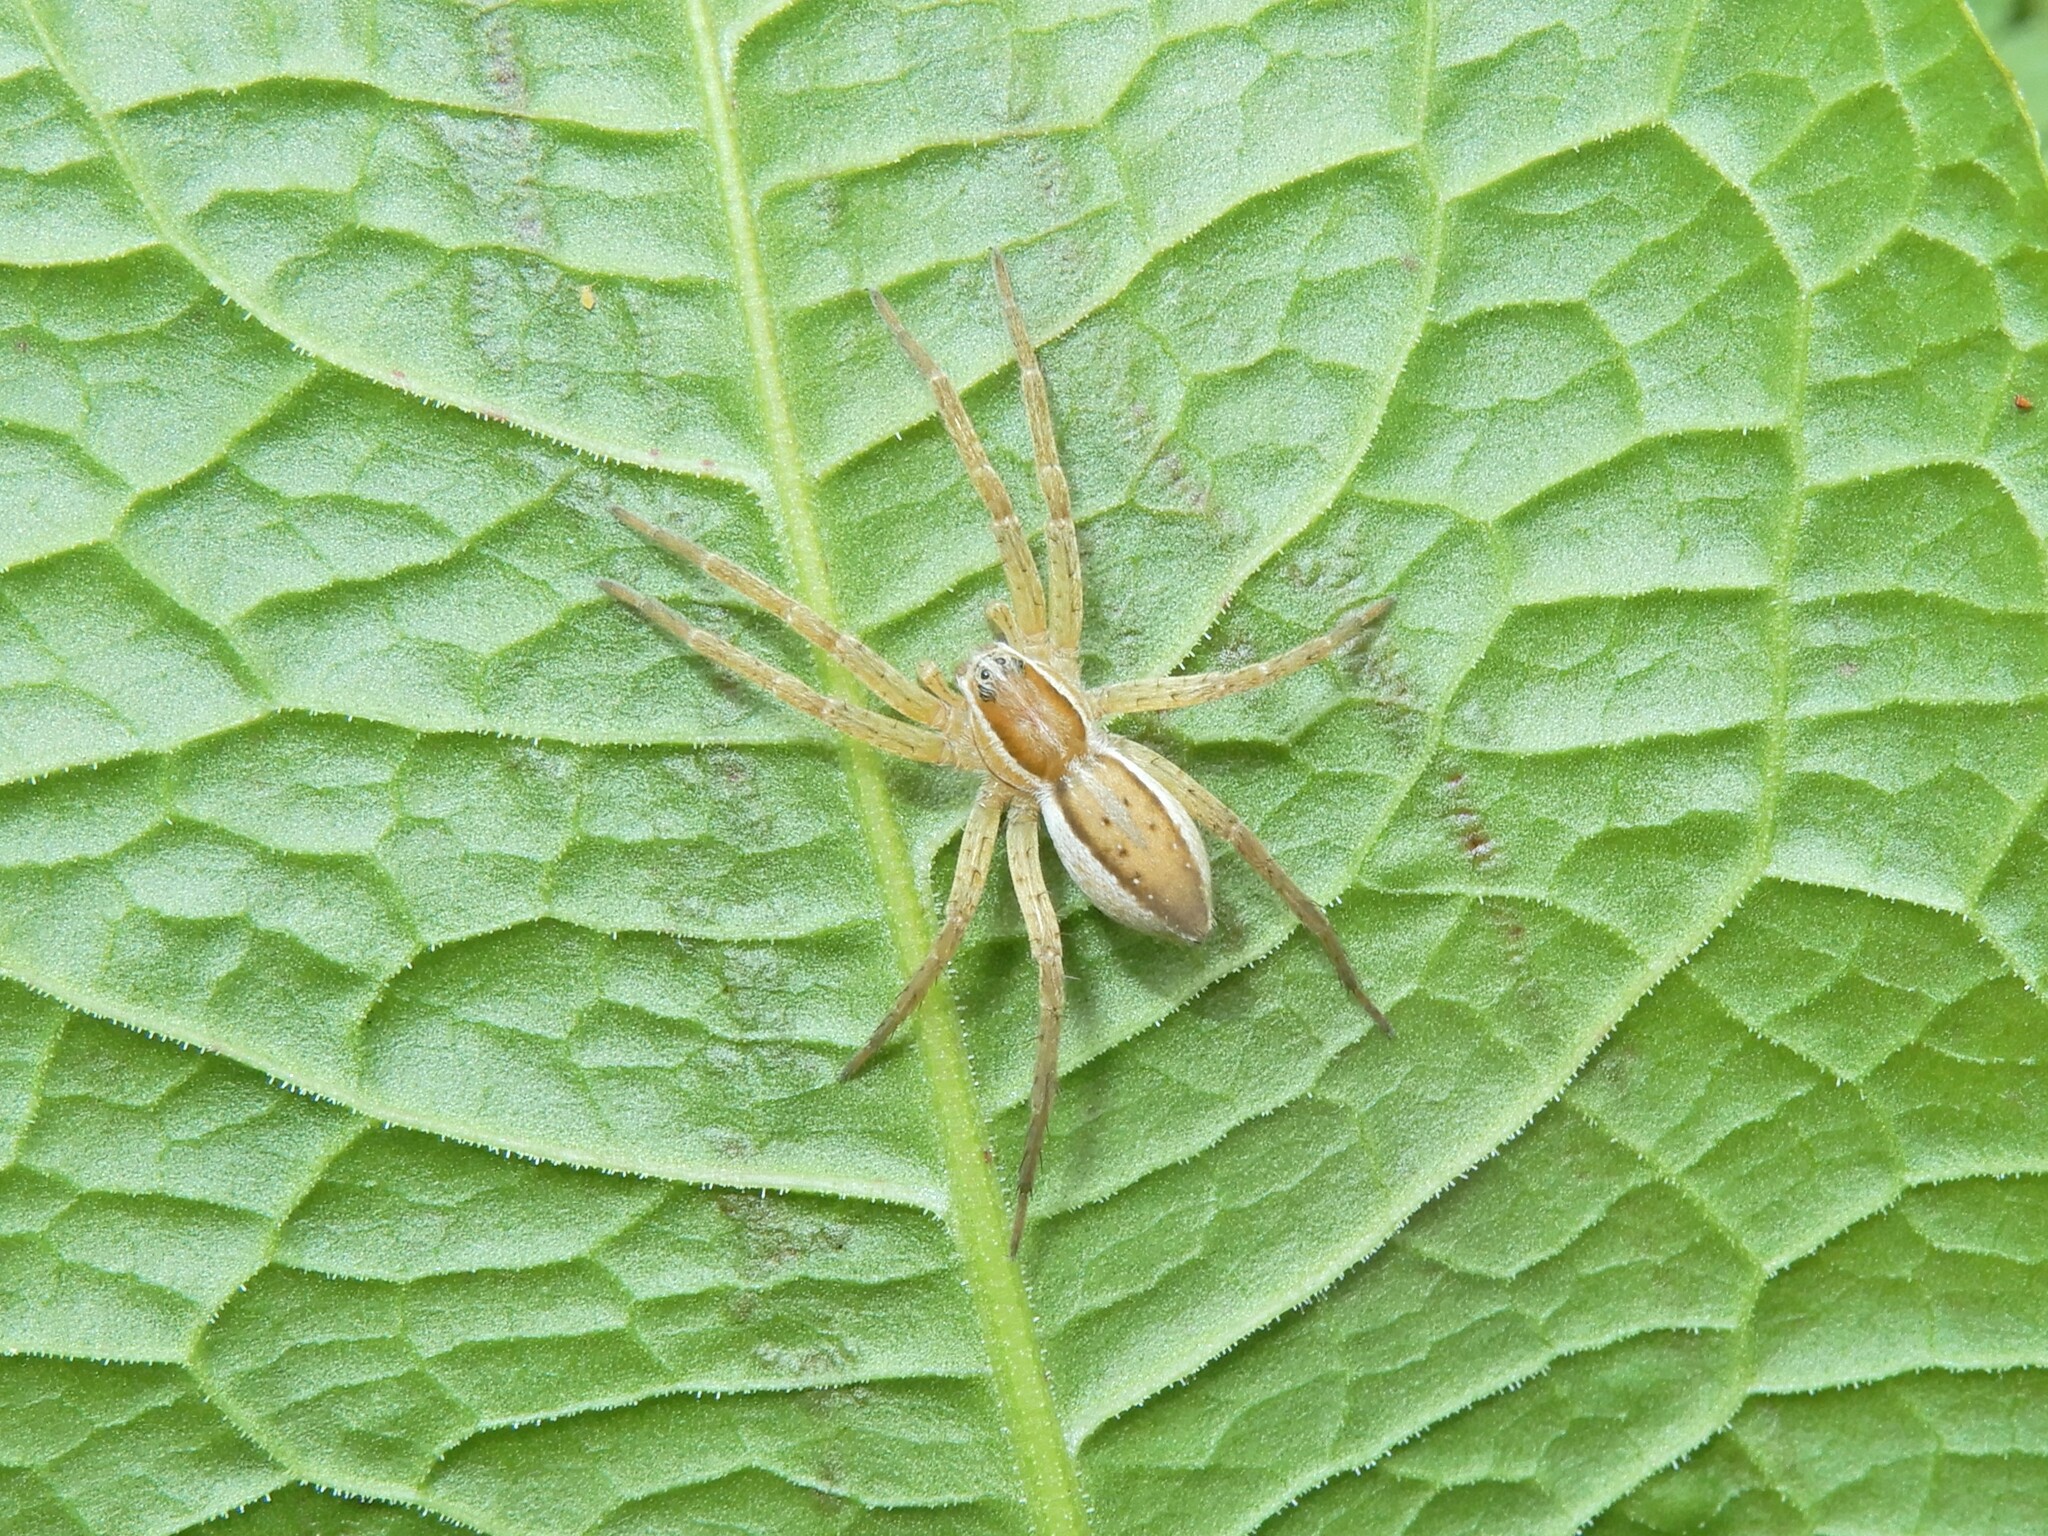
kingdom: Animalia
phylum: Arthropoda
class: Arachnida
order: Araneae
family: Pisauridae
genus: Dolomedes
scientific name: Dolomedes minor
